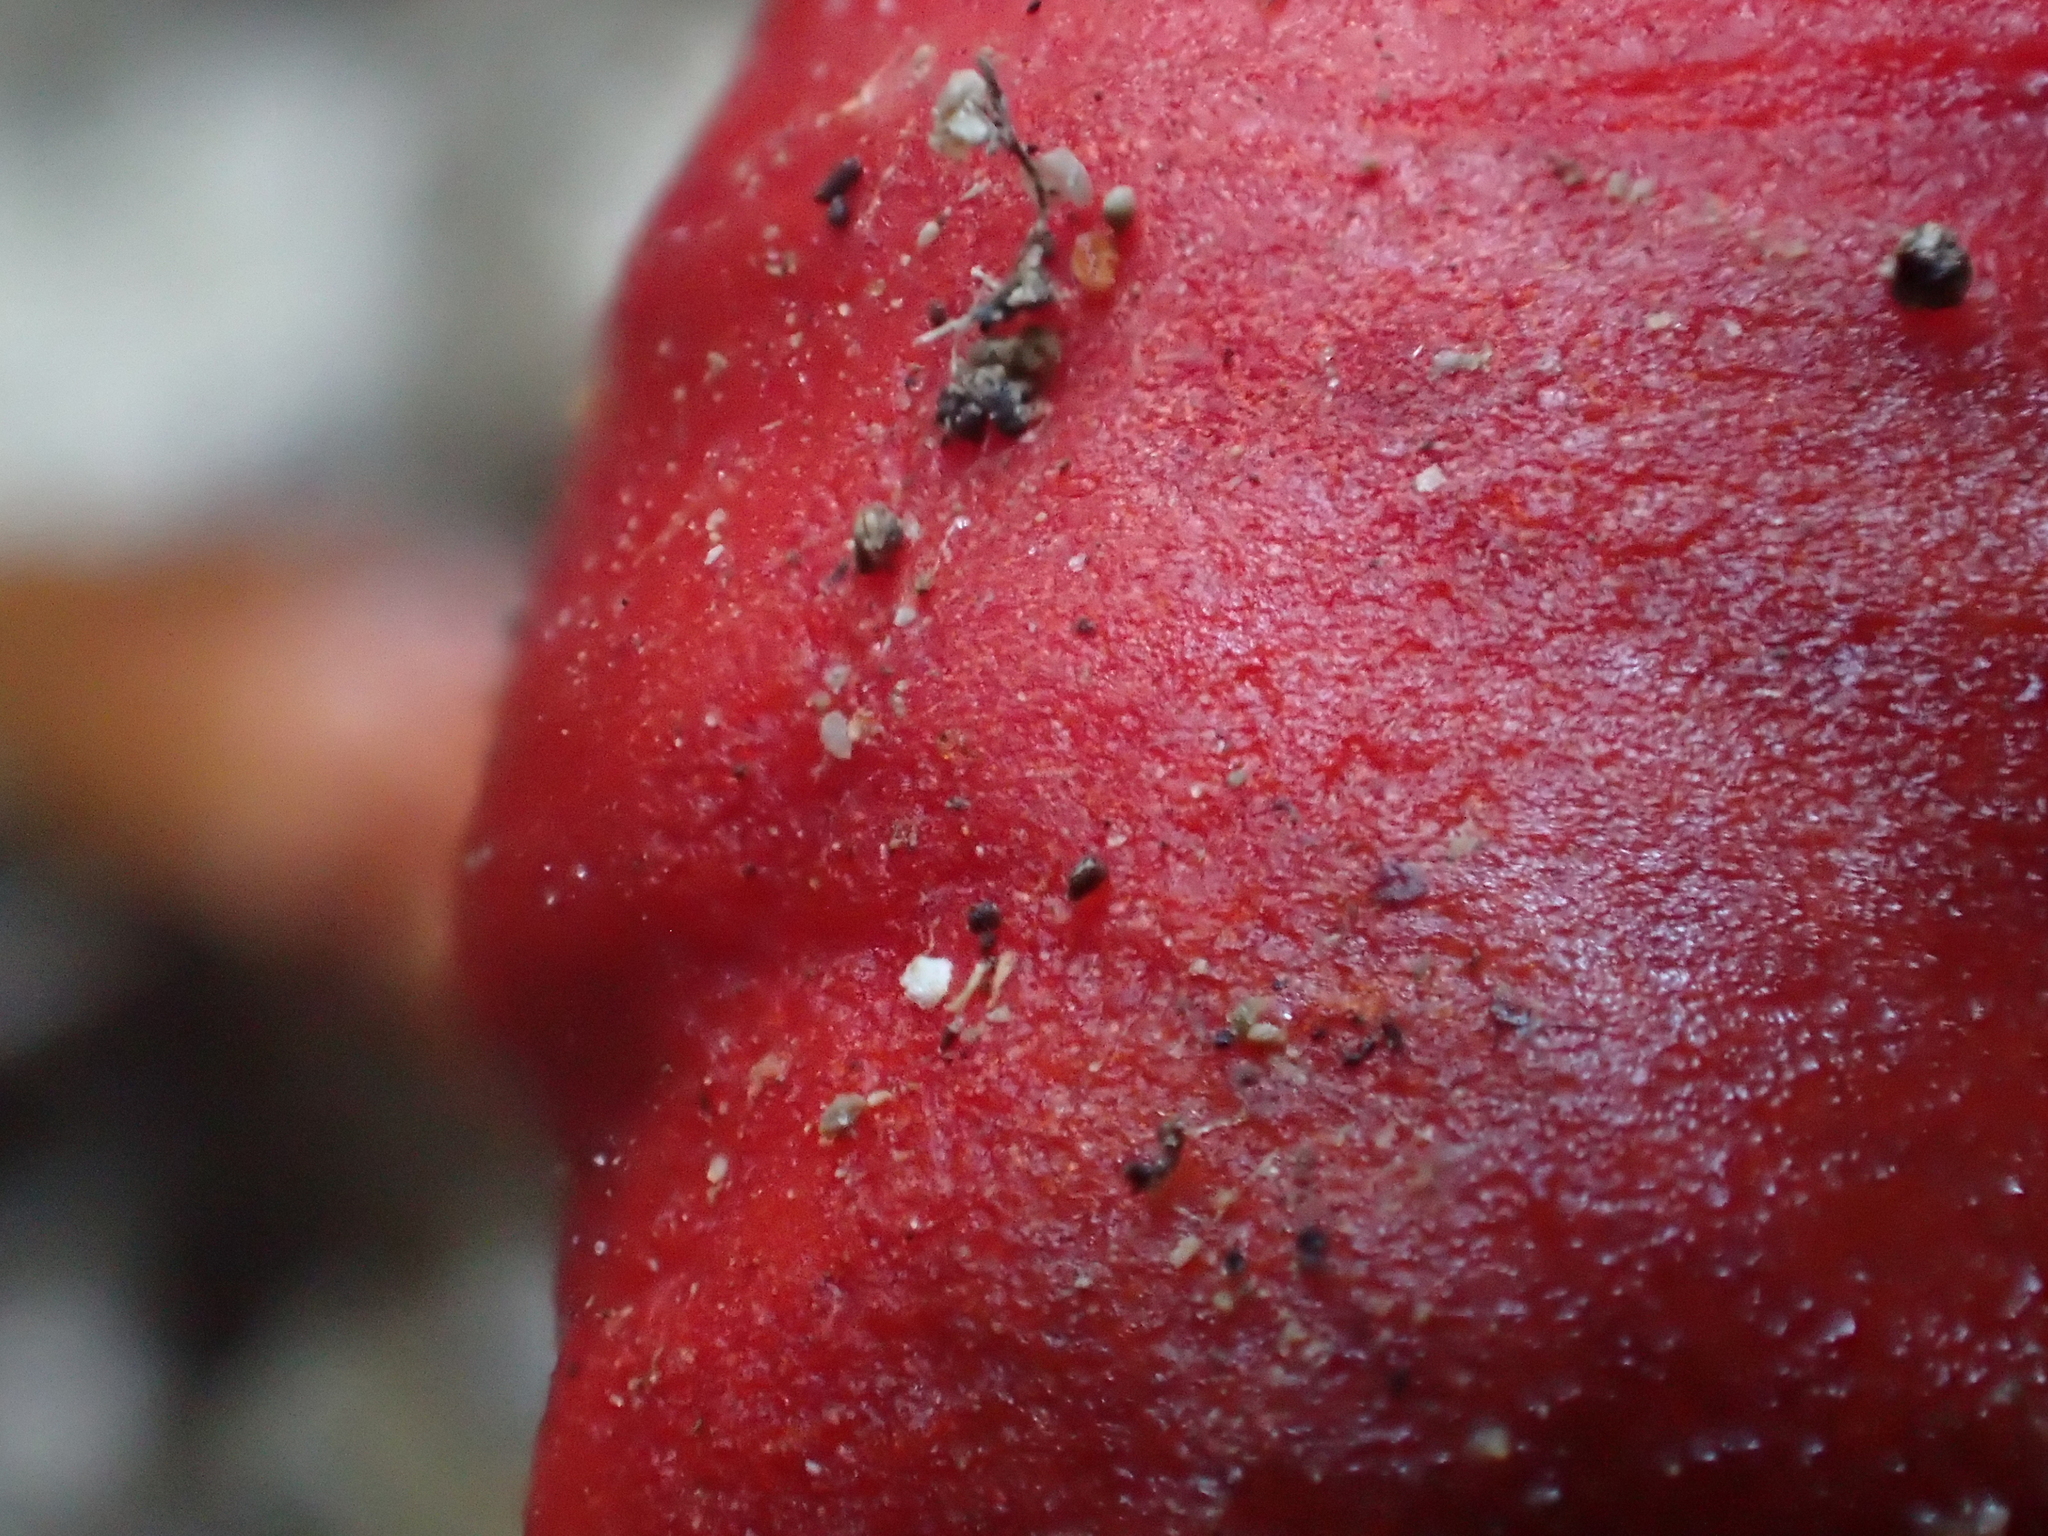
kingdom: Fungi
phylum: Basidiomycota
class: Agaricomycetes
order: Agaricales
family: Strophariaceae
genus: Leratiomyces
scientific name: Leratiomyces erythrocephalus
